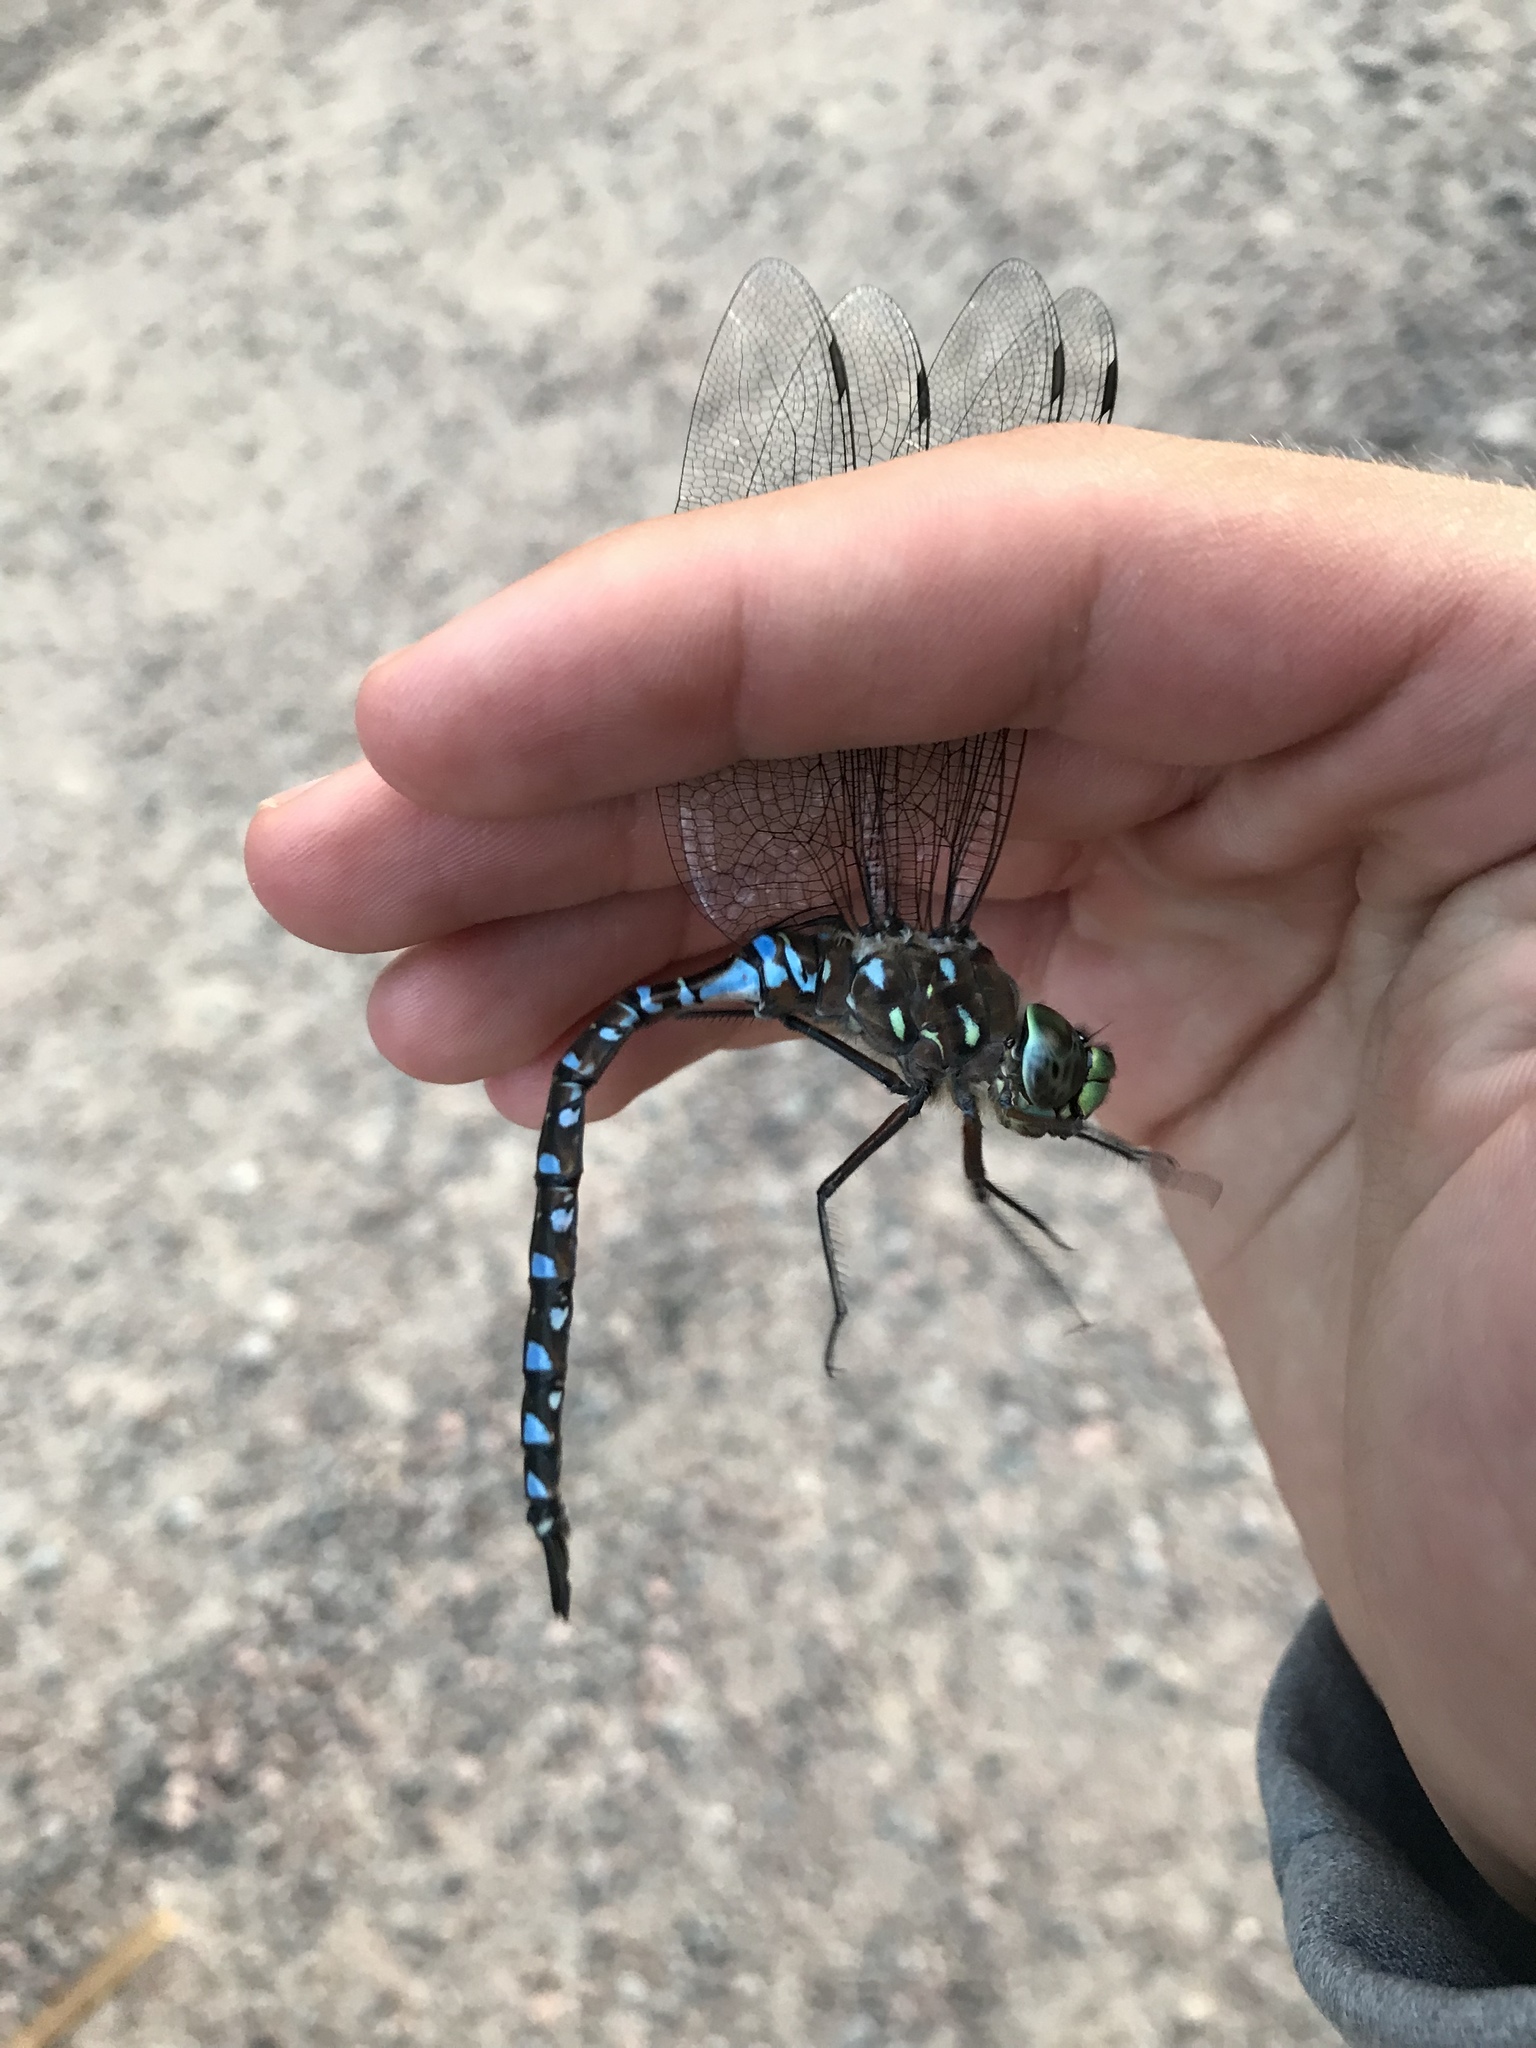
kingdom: Animalia
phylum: Arthropoda
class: Insecta
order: Odonata
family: Aeshnidae
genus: Aeshna
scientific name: Aeshna interrupta
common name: Variable darner
